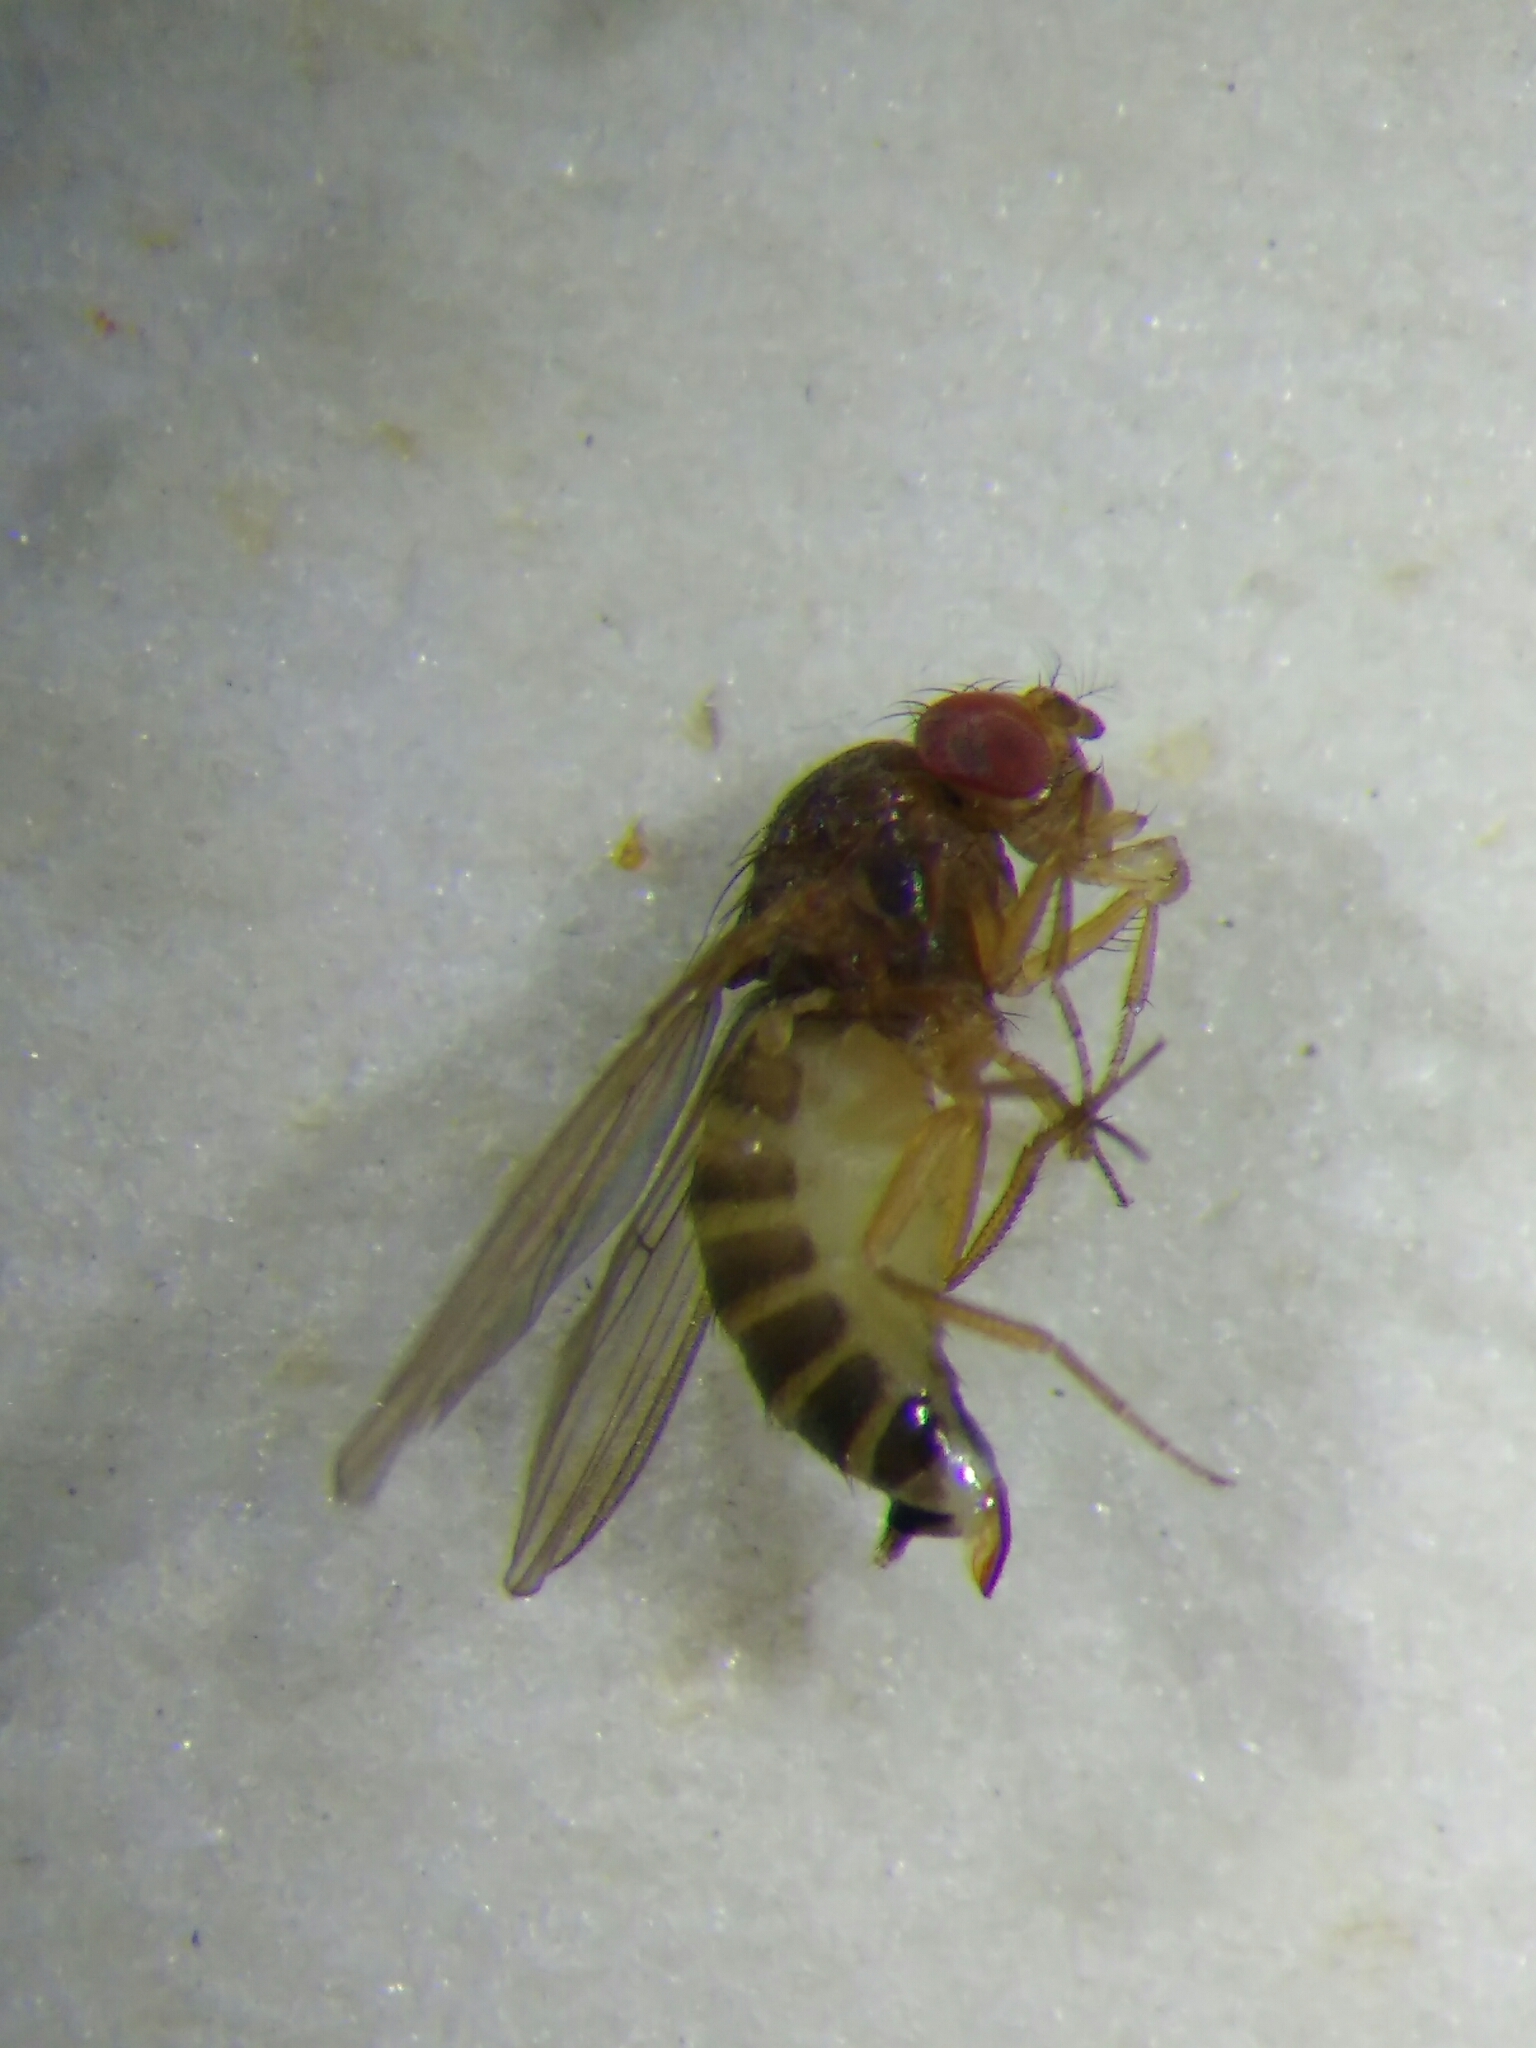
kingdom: Animalia
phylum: Arthropoda
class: Insecta
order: Diptera
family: Drosophilidae
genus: Drosophila
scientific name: Drosophila suzukii
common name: Spotted-wing drosophila
